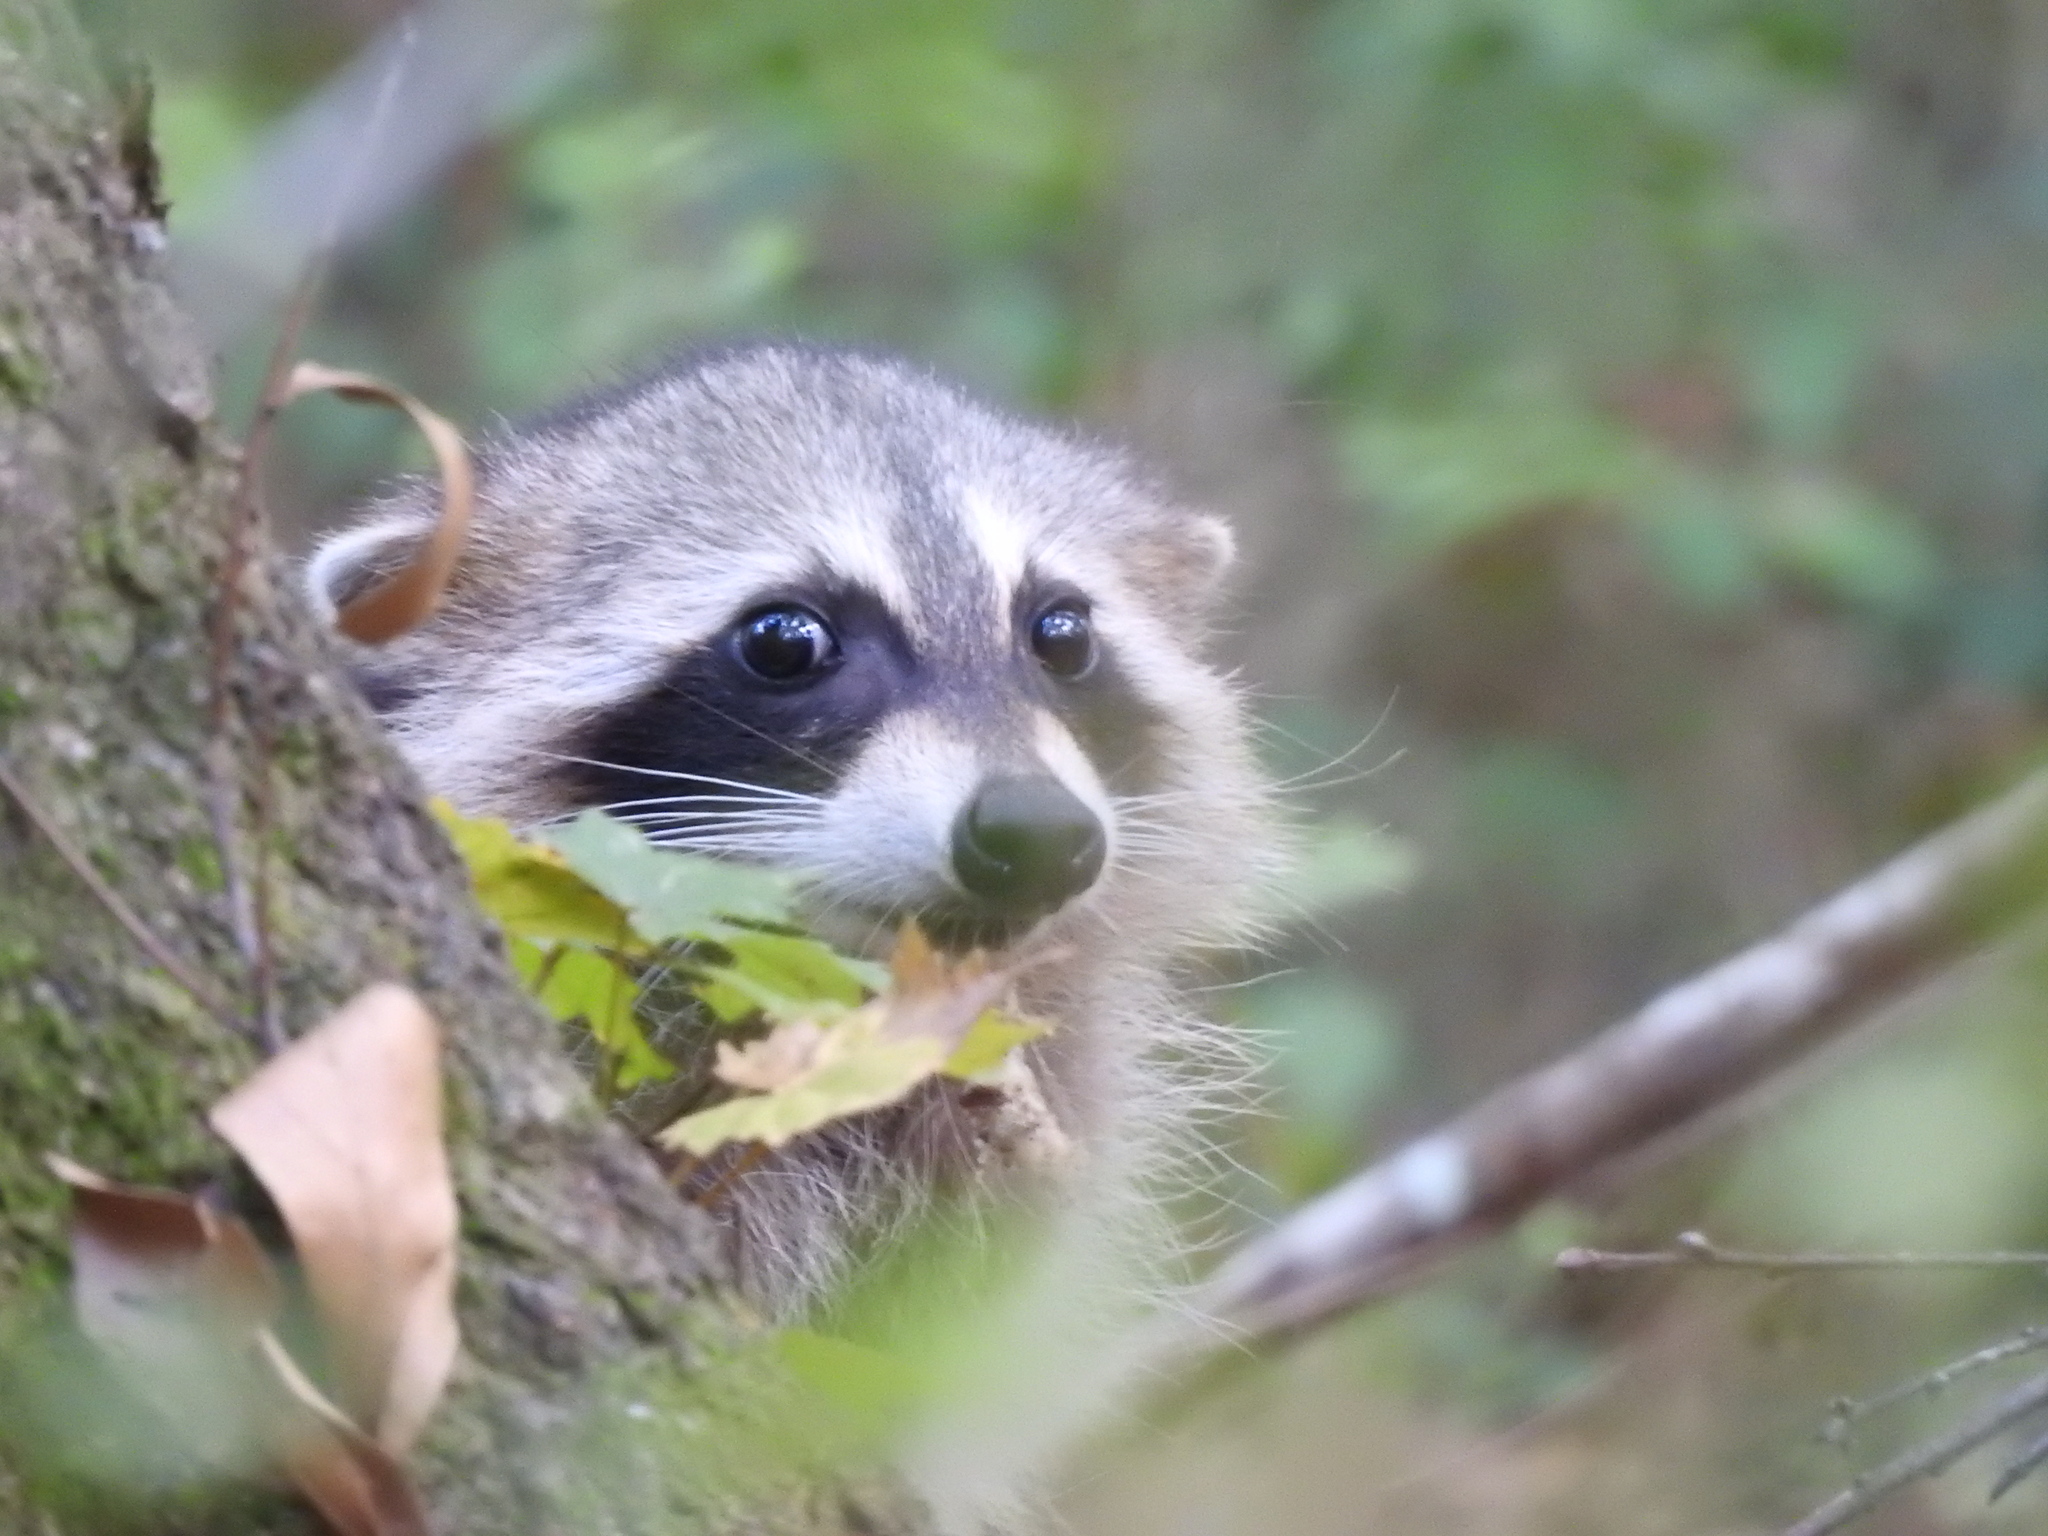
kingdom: Animalia
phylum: Chordata
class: Mammalia
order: Carnivora
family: Procyonidae
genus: Procyon
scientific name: Procyon lotor
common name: Raccoon
